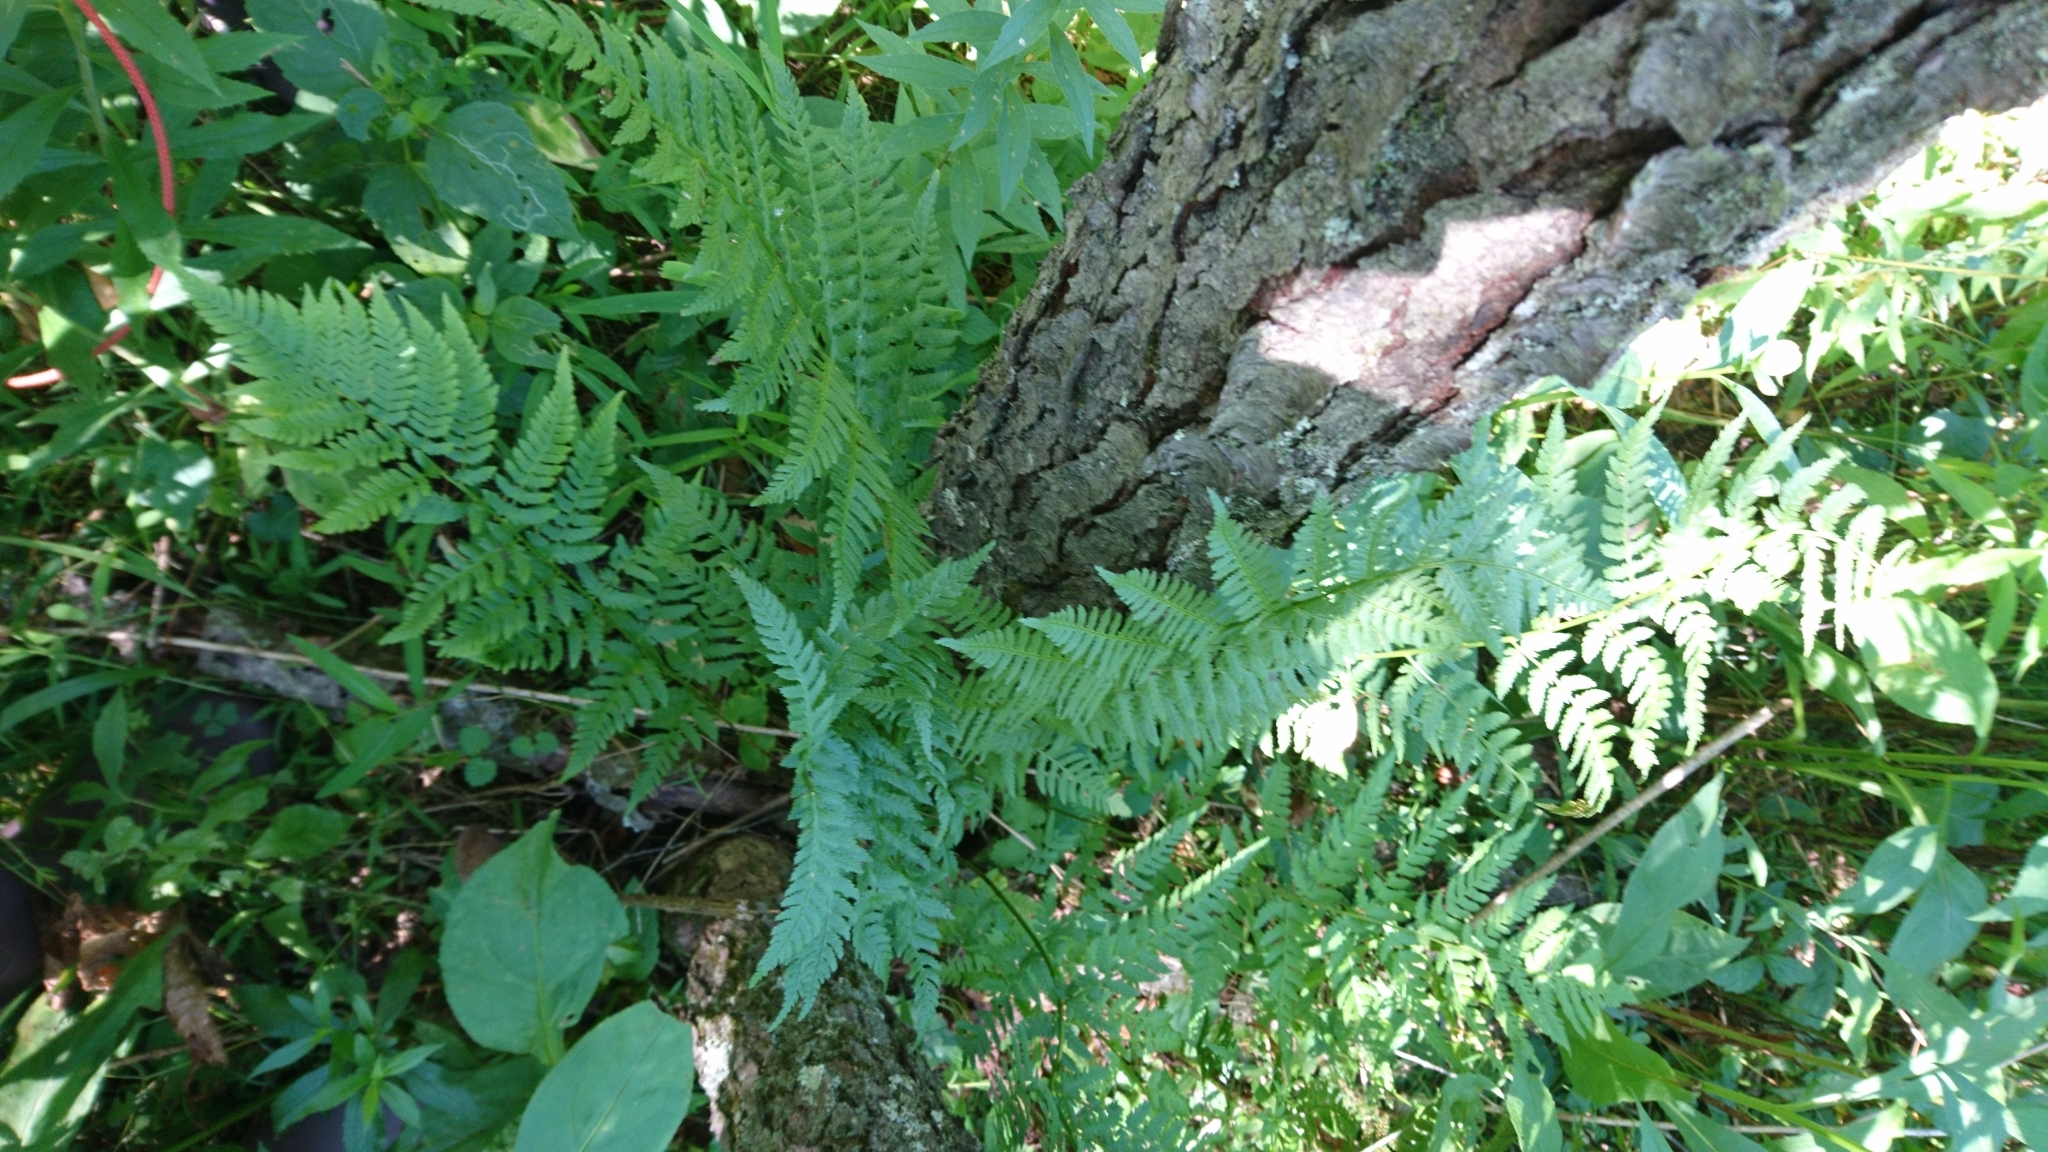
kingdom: Plantae
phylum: Tracheophyta
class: Polypodiopsida
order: Polypodiales
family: Dryopteridaceae
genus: Dryopteris
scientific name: Dryopteris carthusiana
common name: Narrow buckler-fern
